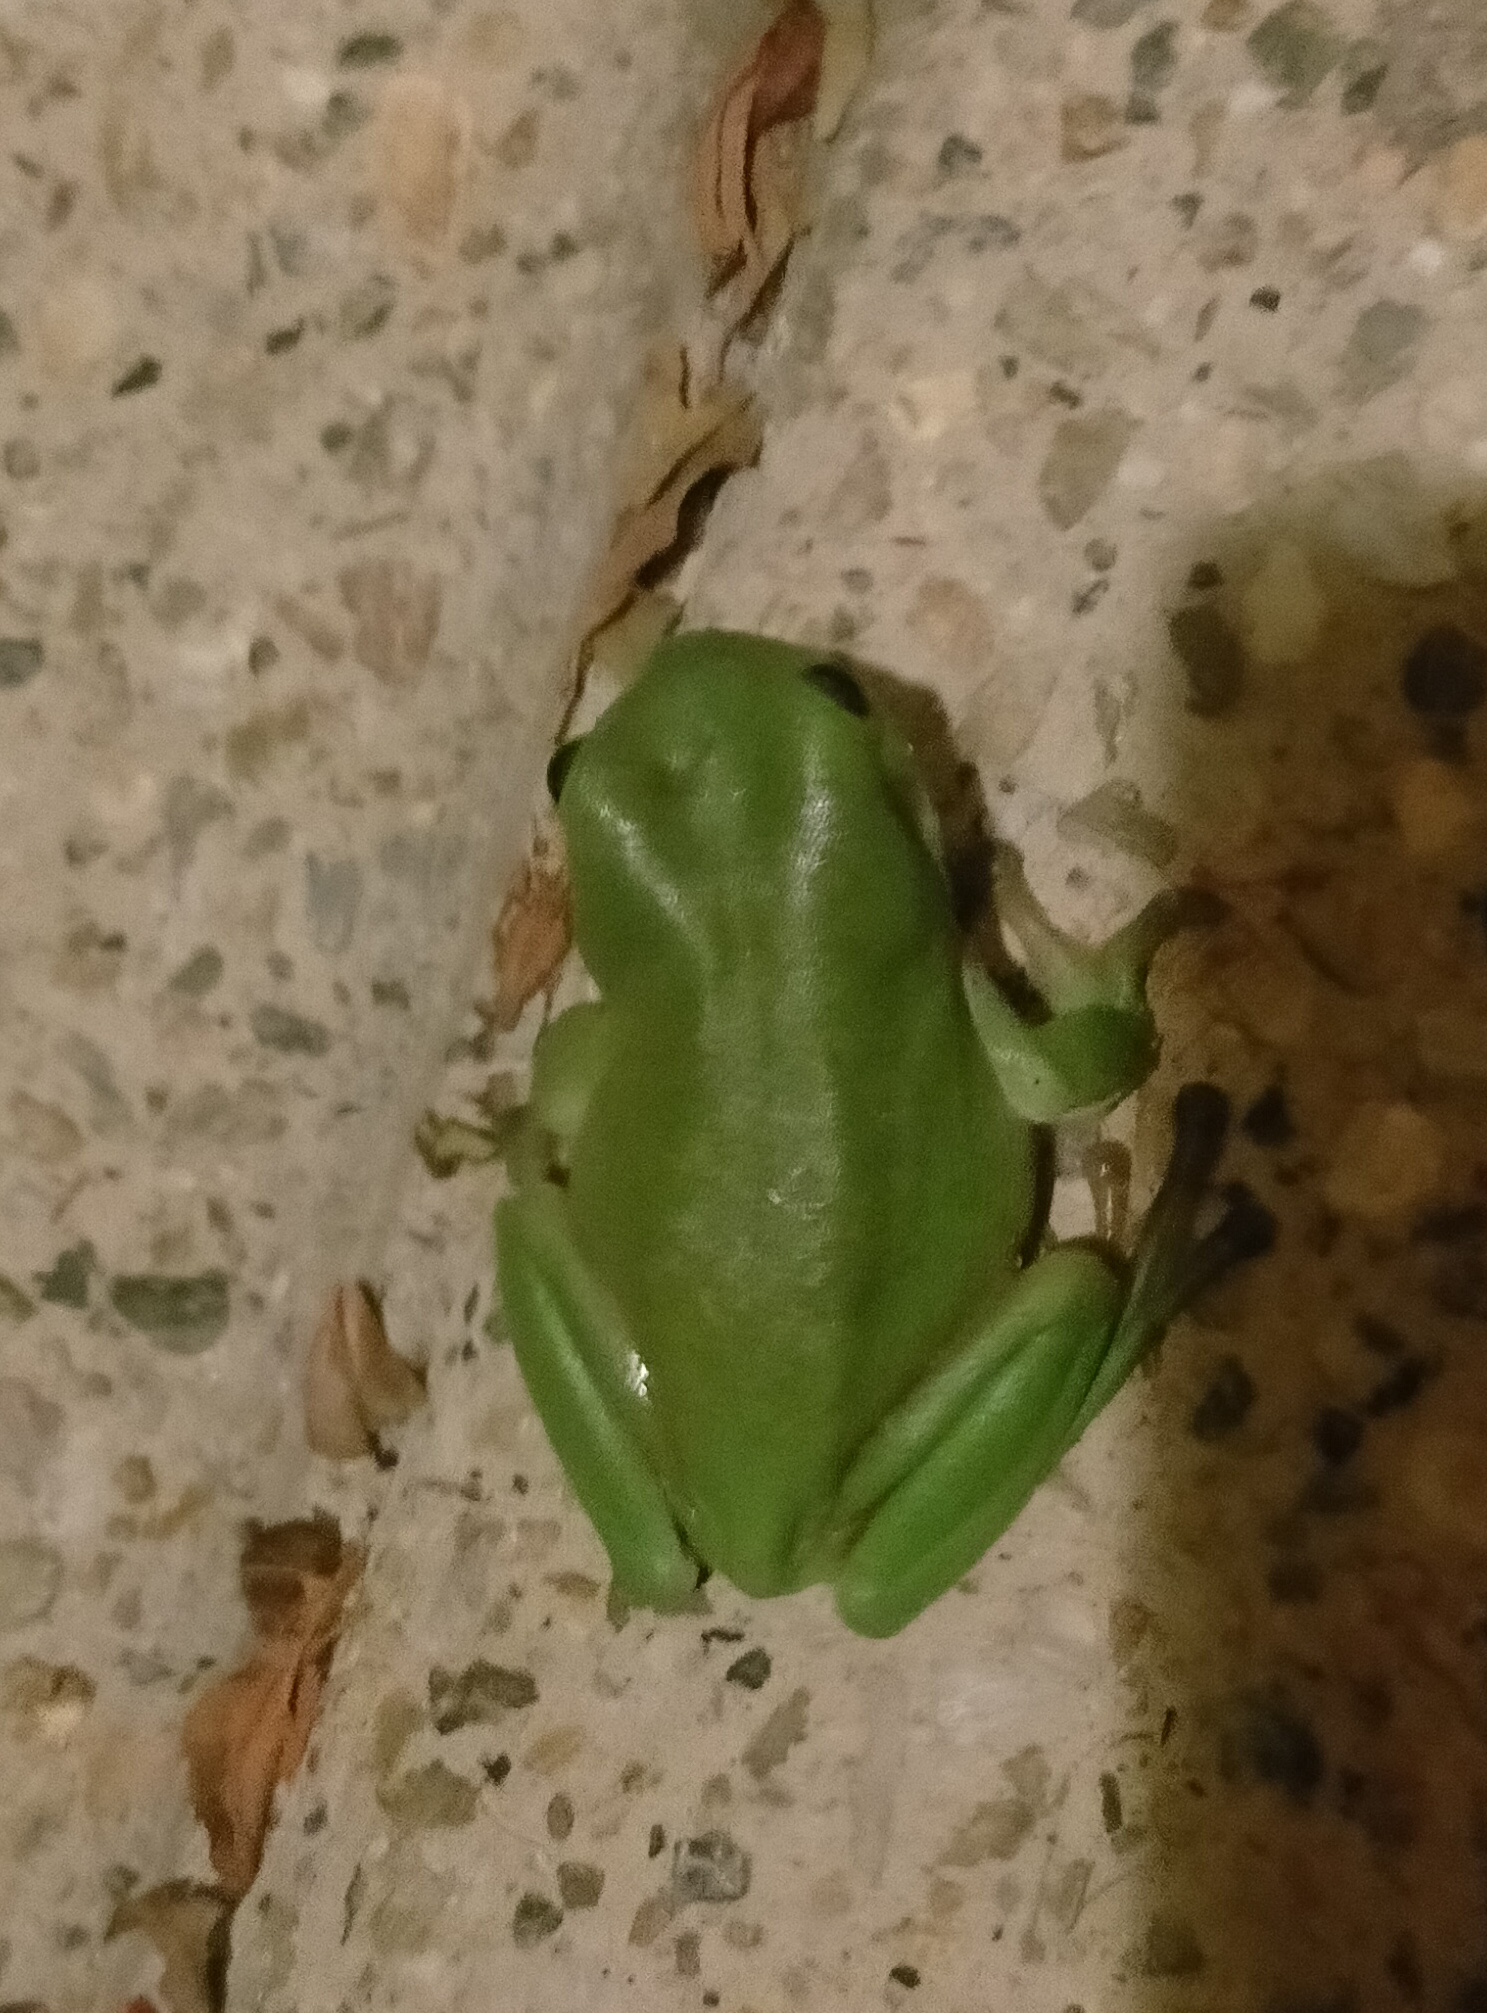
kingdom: Animalia
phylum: Chordata
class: Amphibia
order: Anura
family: Pelodryadidae
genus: Ranoidea
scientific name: Ranoidea caerulea
